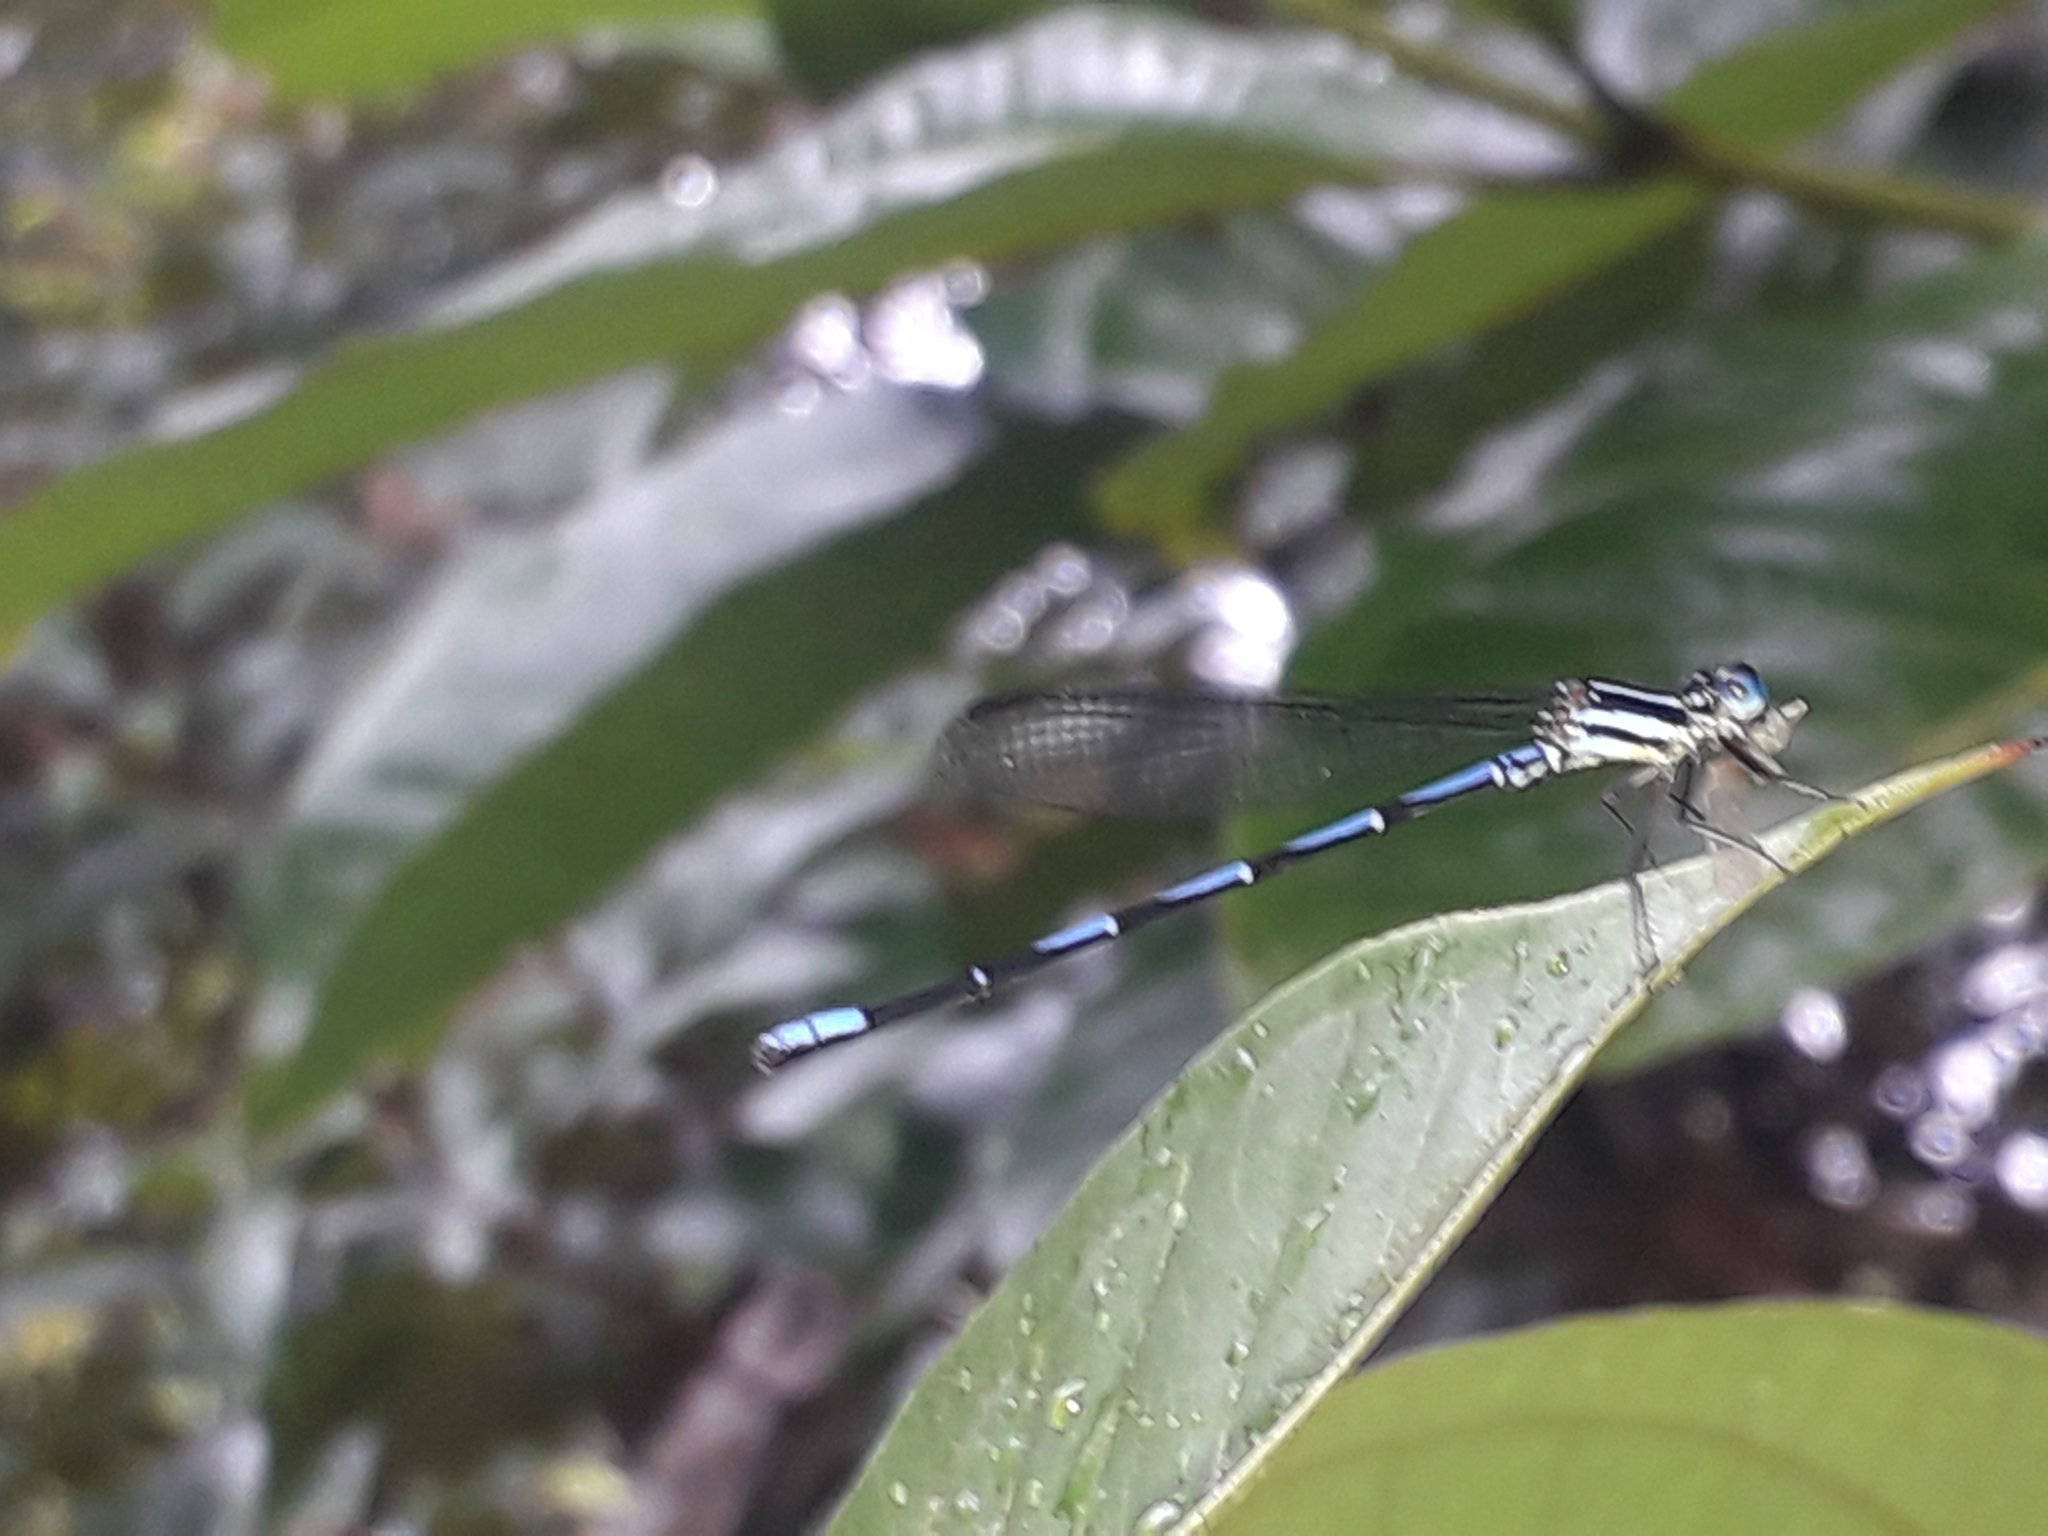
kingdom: Animalia
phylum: Arthropoda
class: Insecta
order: Odonata
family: Coenagrionidae
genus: Argia
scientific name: Argia concinna
